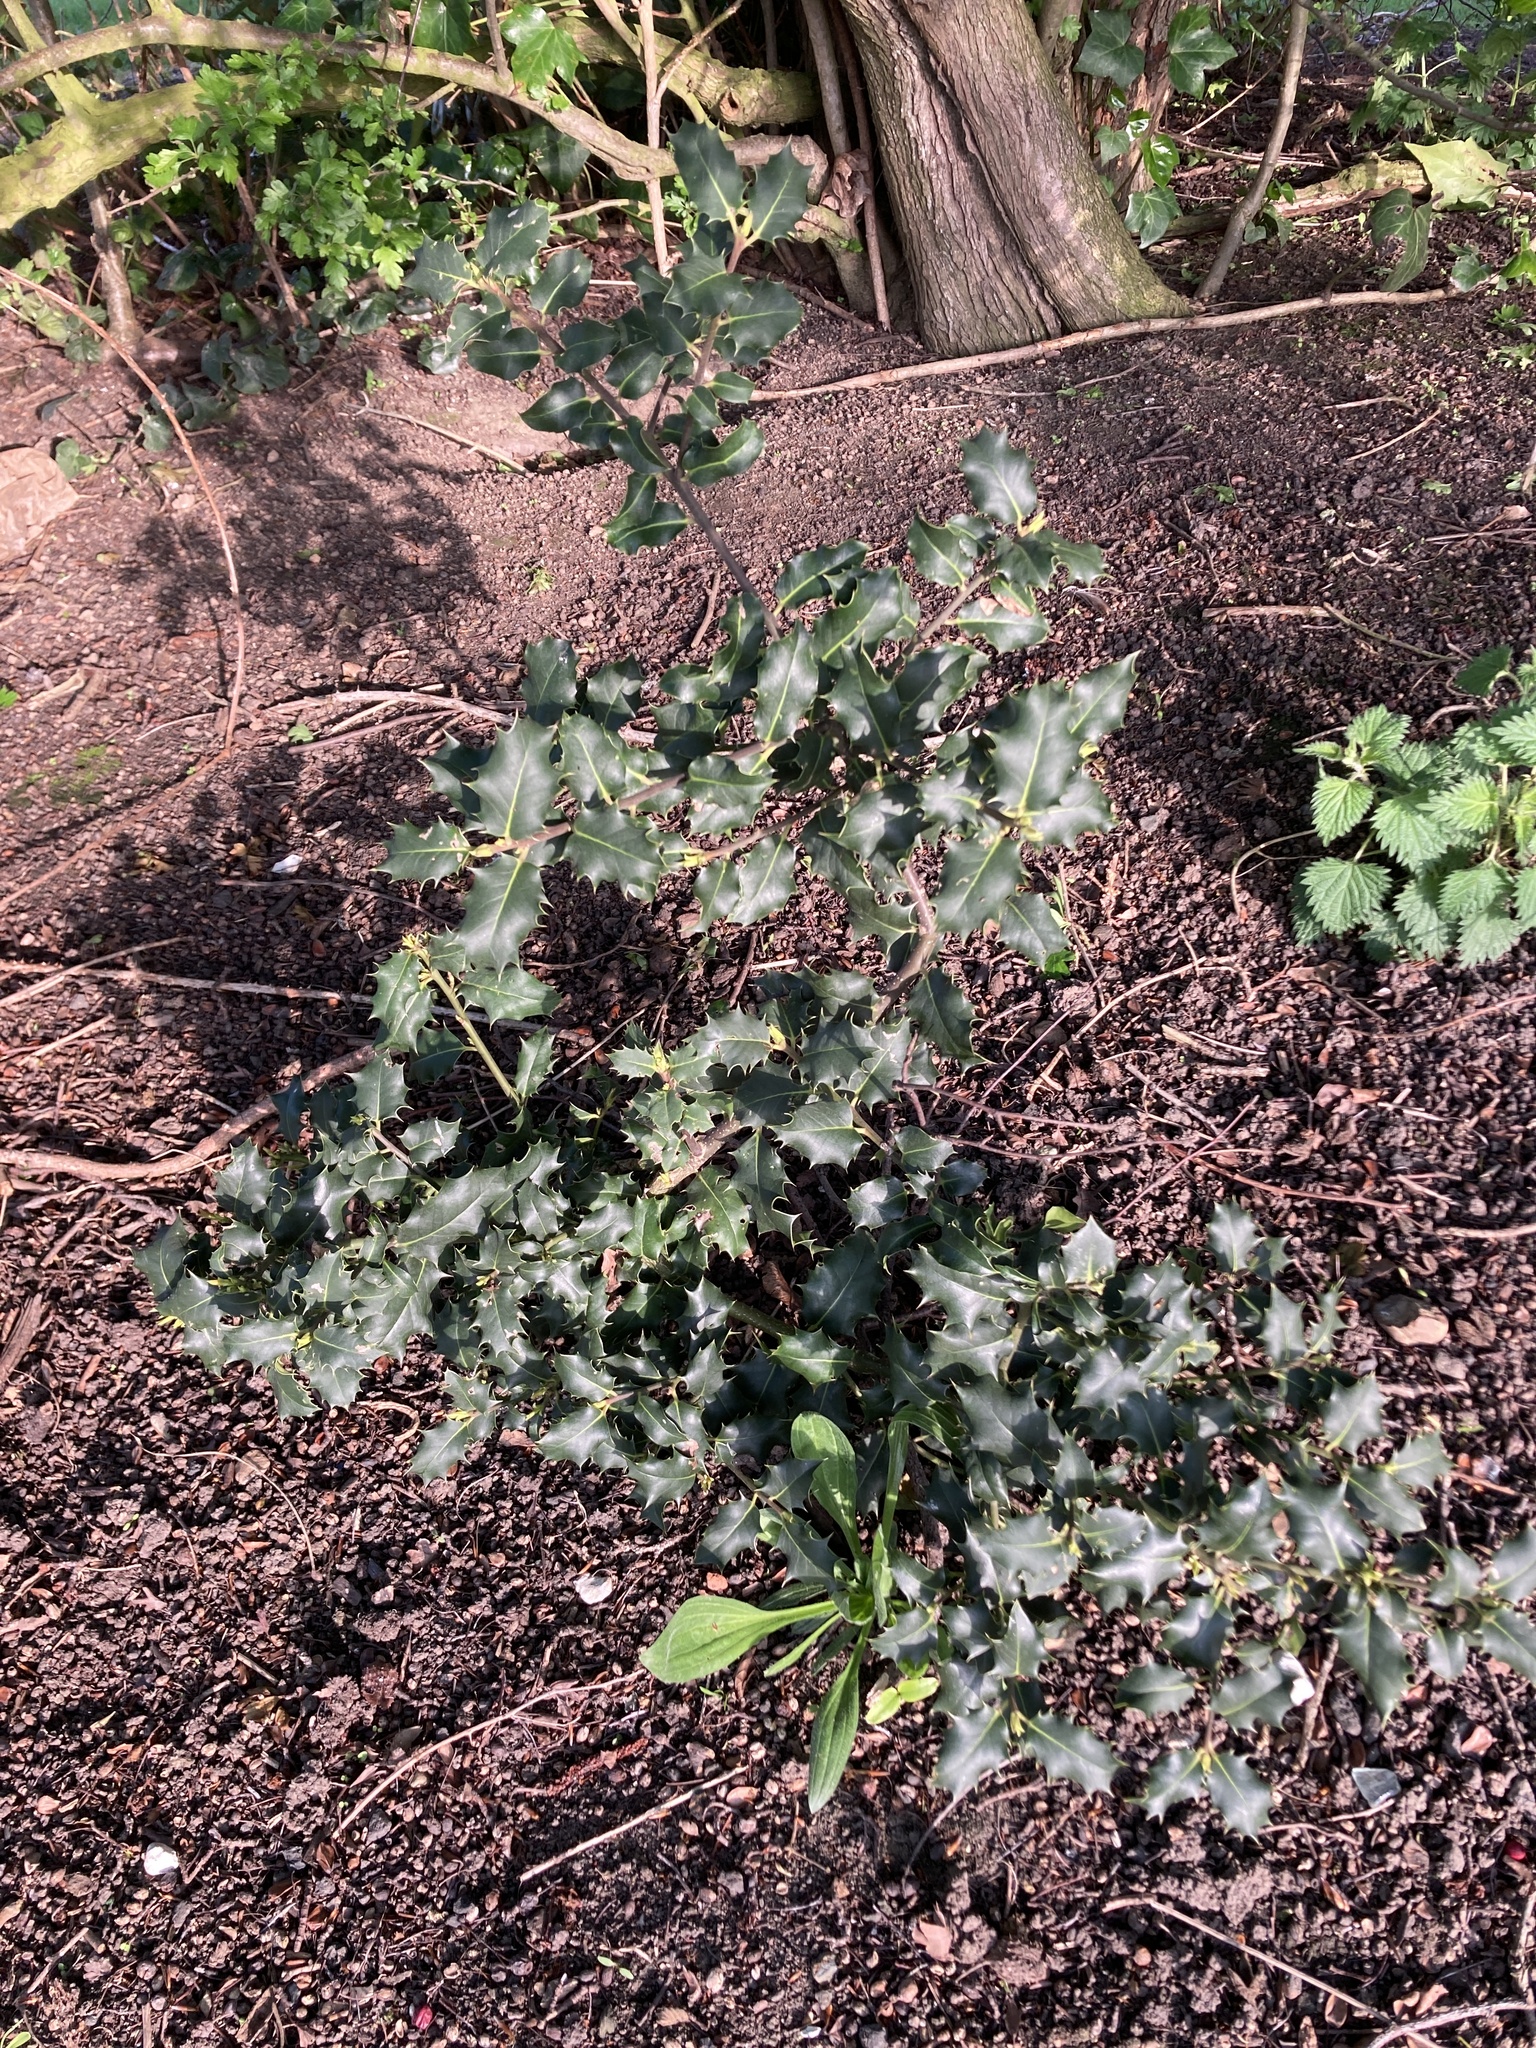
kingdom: Plantae
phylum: Tracheophyta
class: Magnoliopsida
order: Aquifoliales
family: Aquifoliaceae
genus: Ilex
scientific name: Ilex aquifolium
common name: English holly
